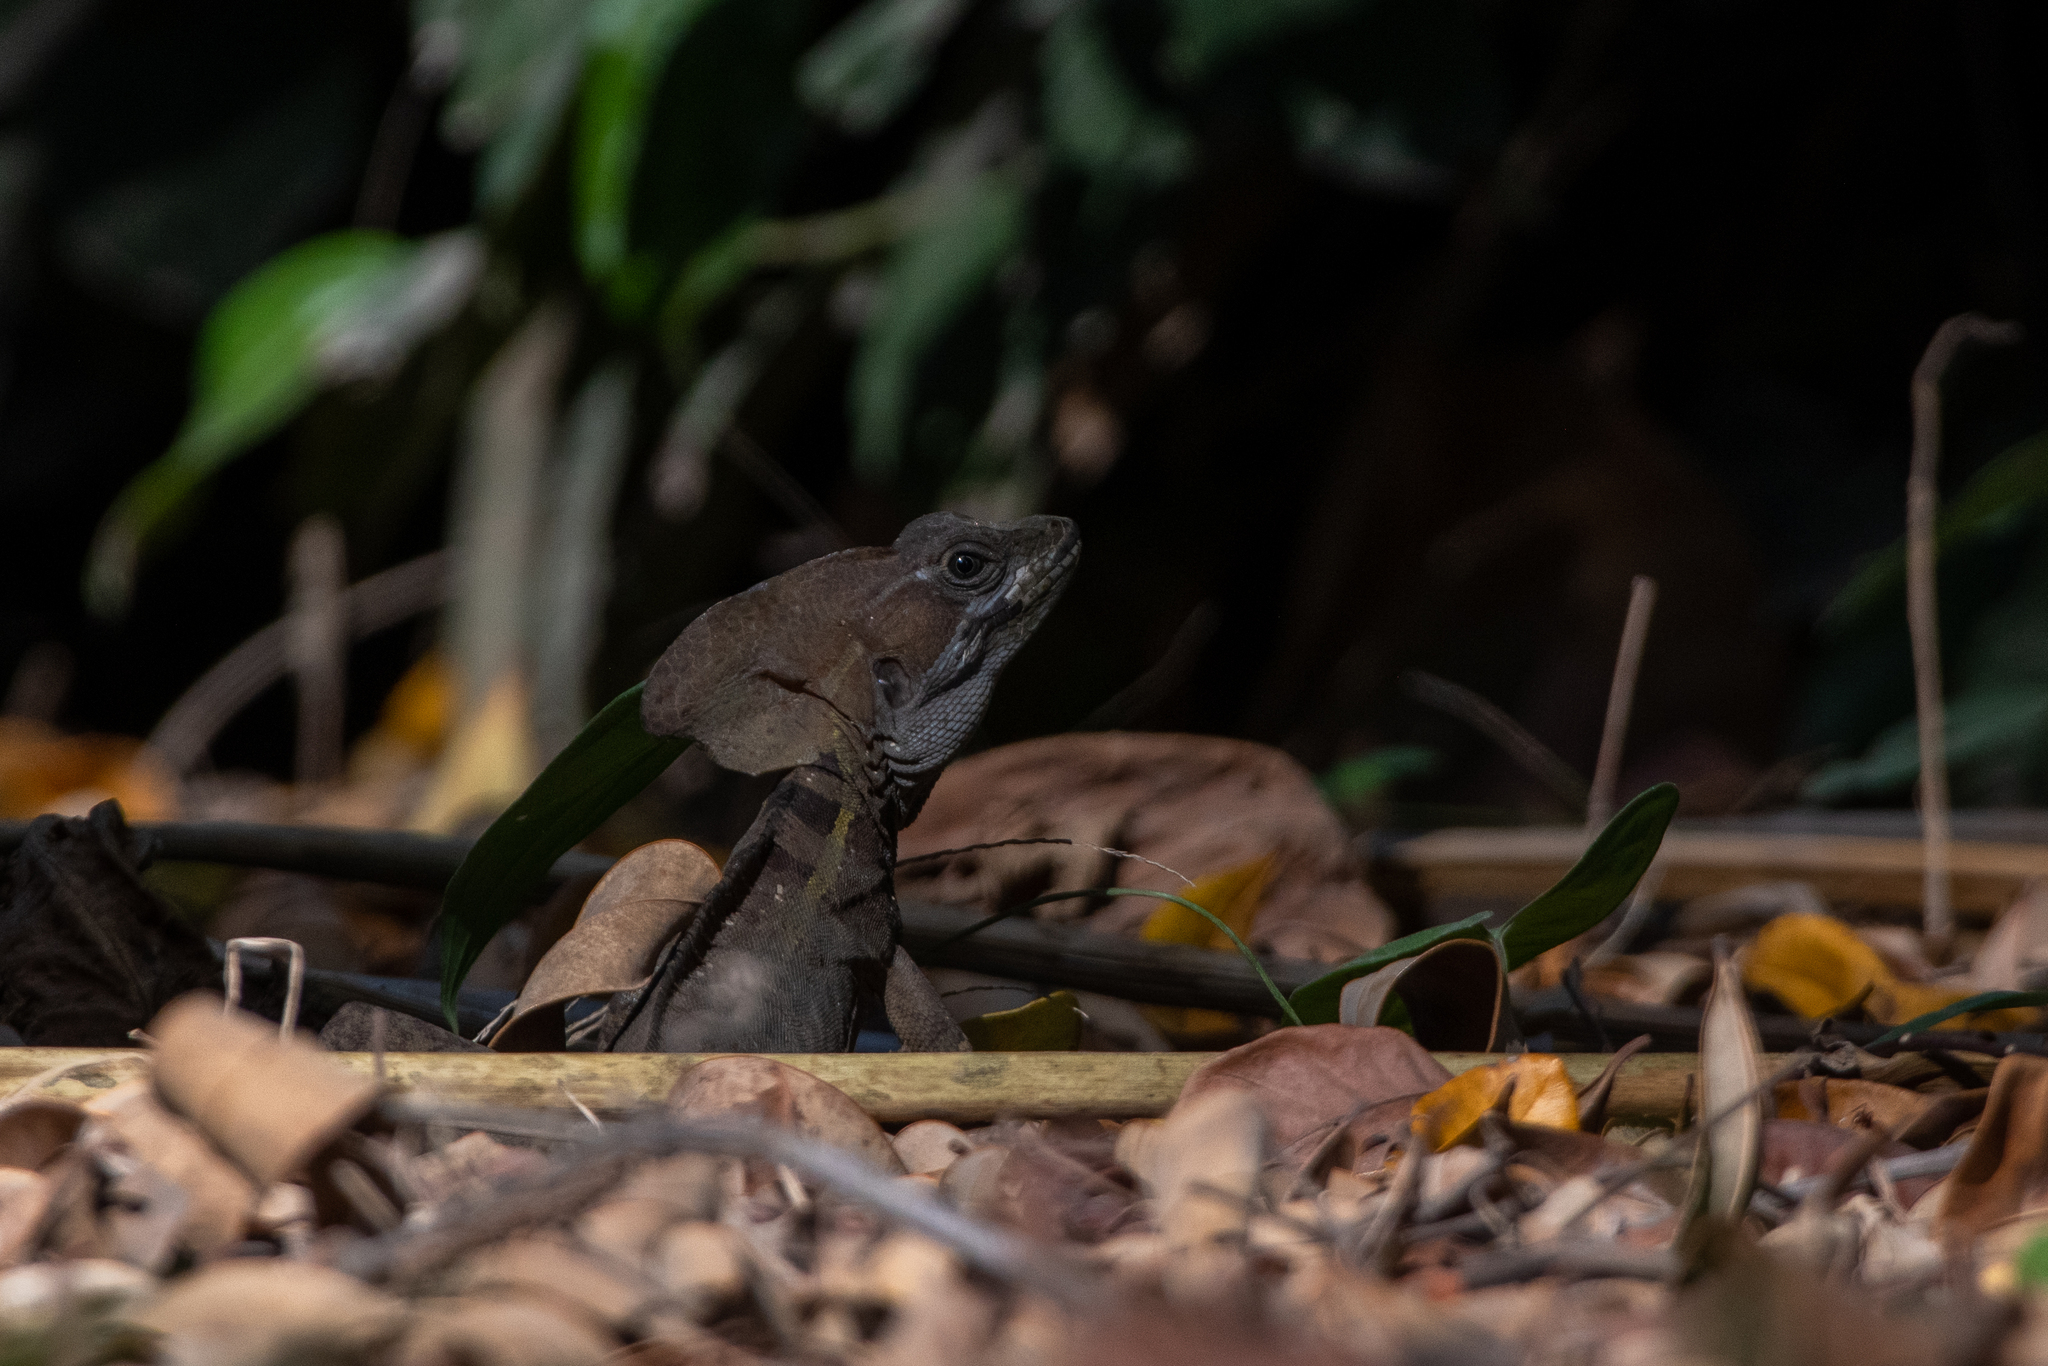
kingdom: Animalia
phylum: Chordata
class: Squamata
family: Corytophanidae
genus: Basiliscus
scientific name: Basiliscus vittatus
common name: Brown basilisk
